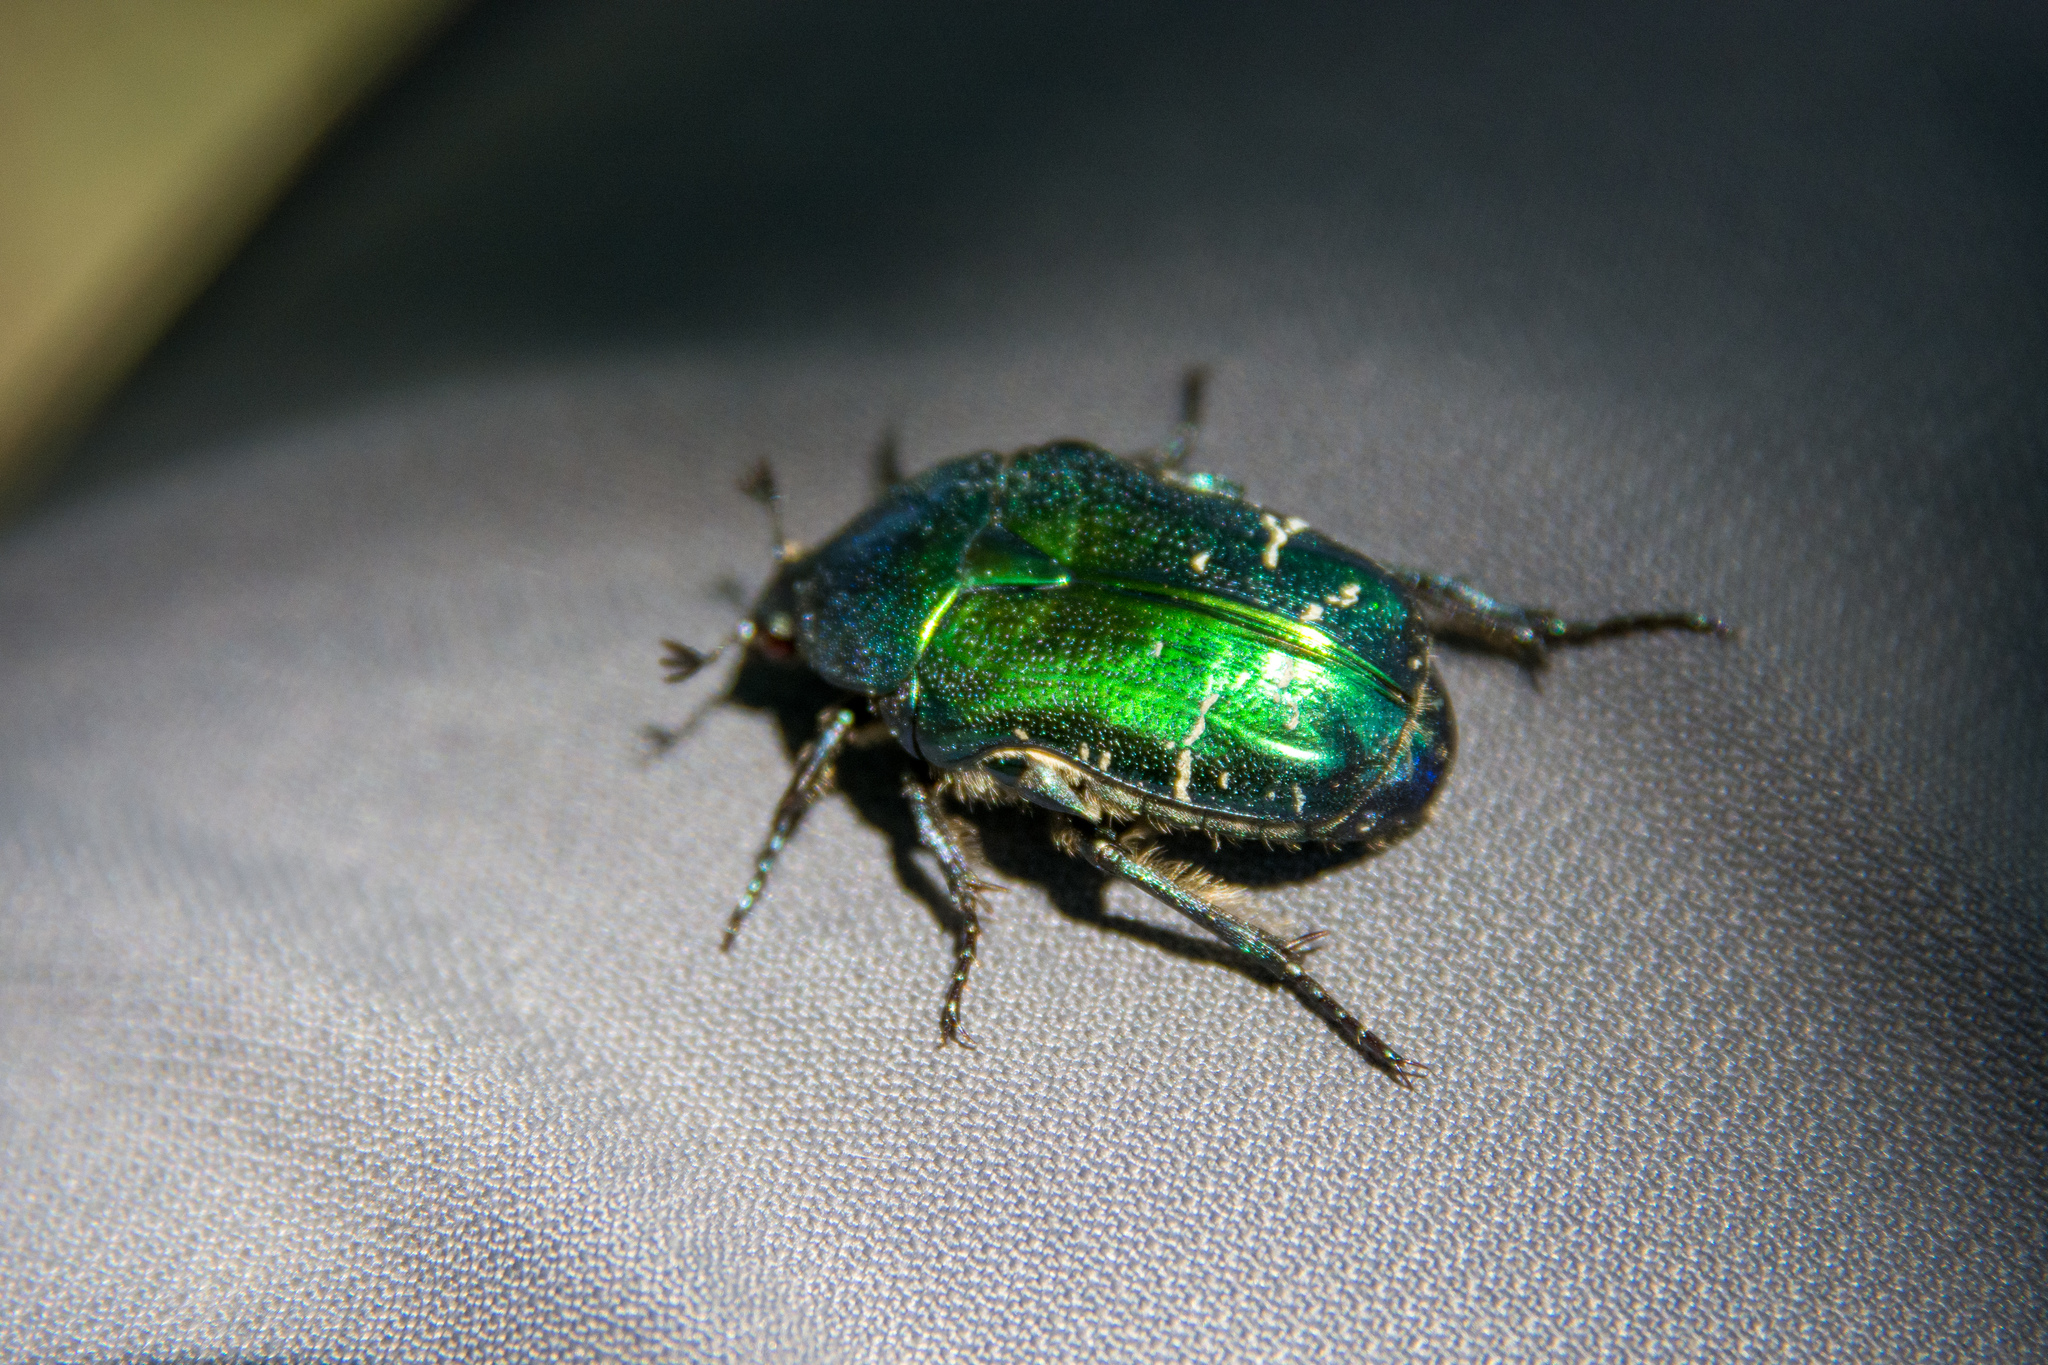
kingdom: Animalia
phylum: Arthropoda
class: Insecta
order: Coleoptera
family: Scarabaeidae
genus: Cetonia
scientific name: Cetonia aurata
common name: Rose chafer
